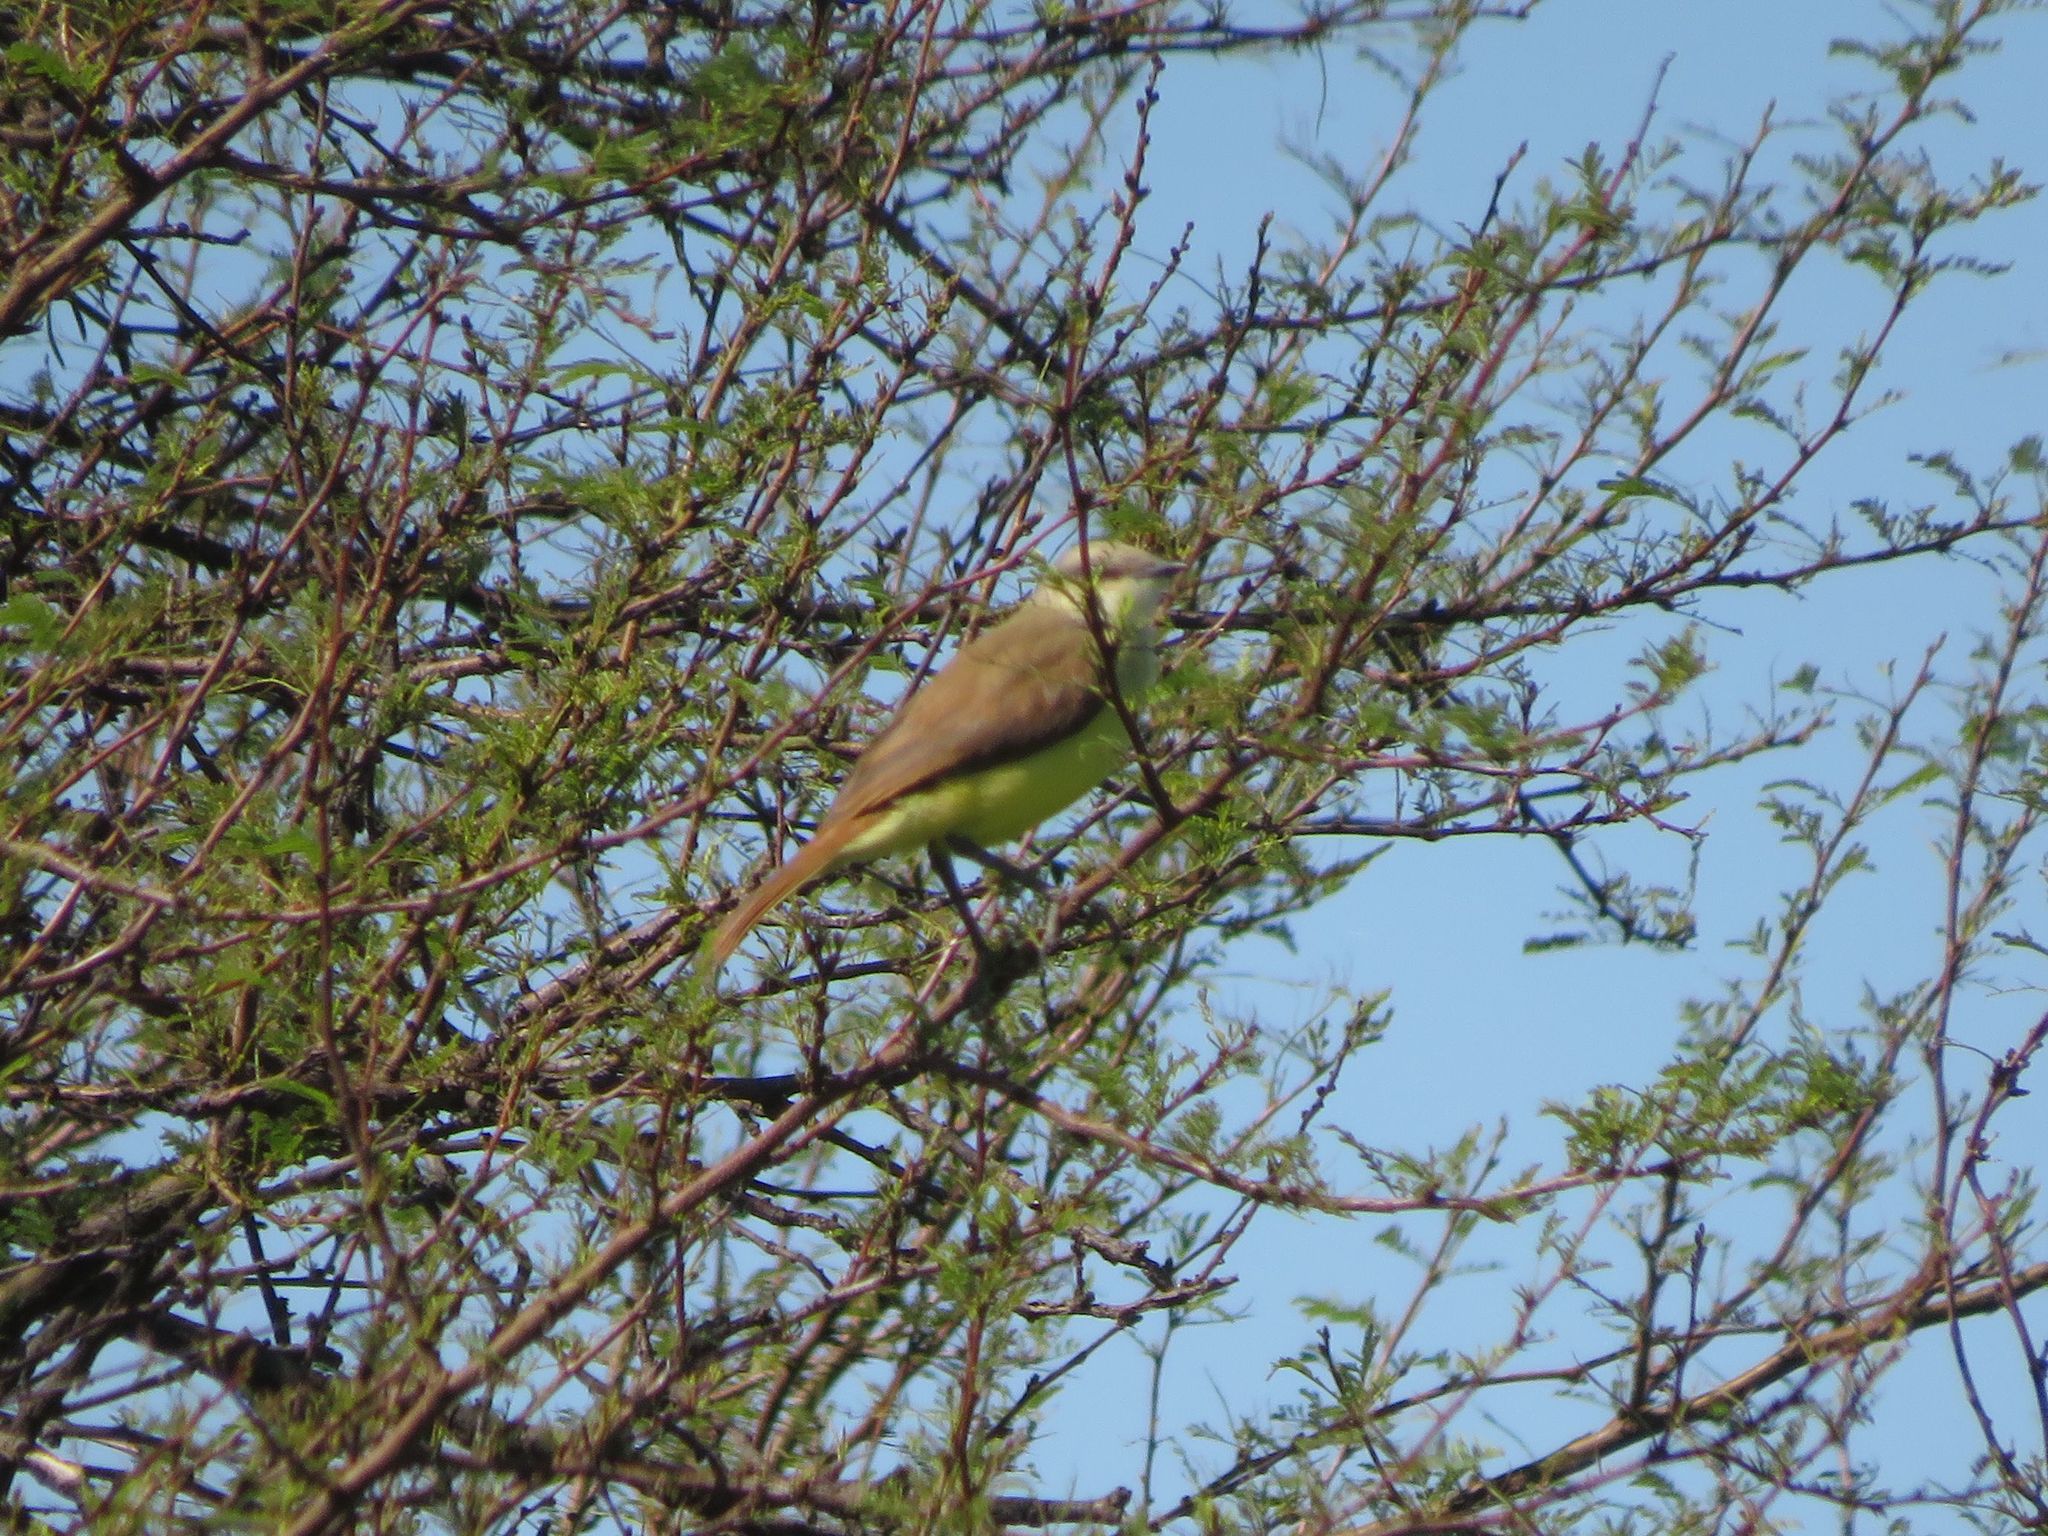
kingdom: Animalia
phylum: Chordata
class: Aves
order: Passeriformes
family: Tyrannidae
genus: Machetornis
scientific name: Machetornis rixosa
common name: Cattle tyrant
